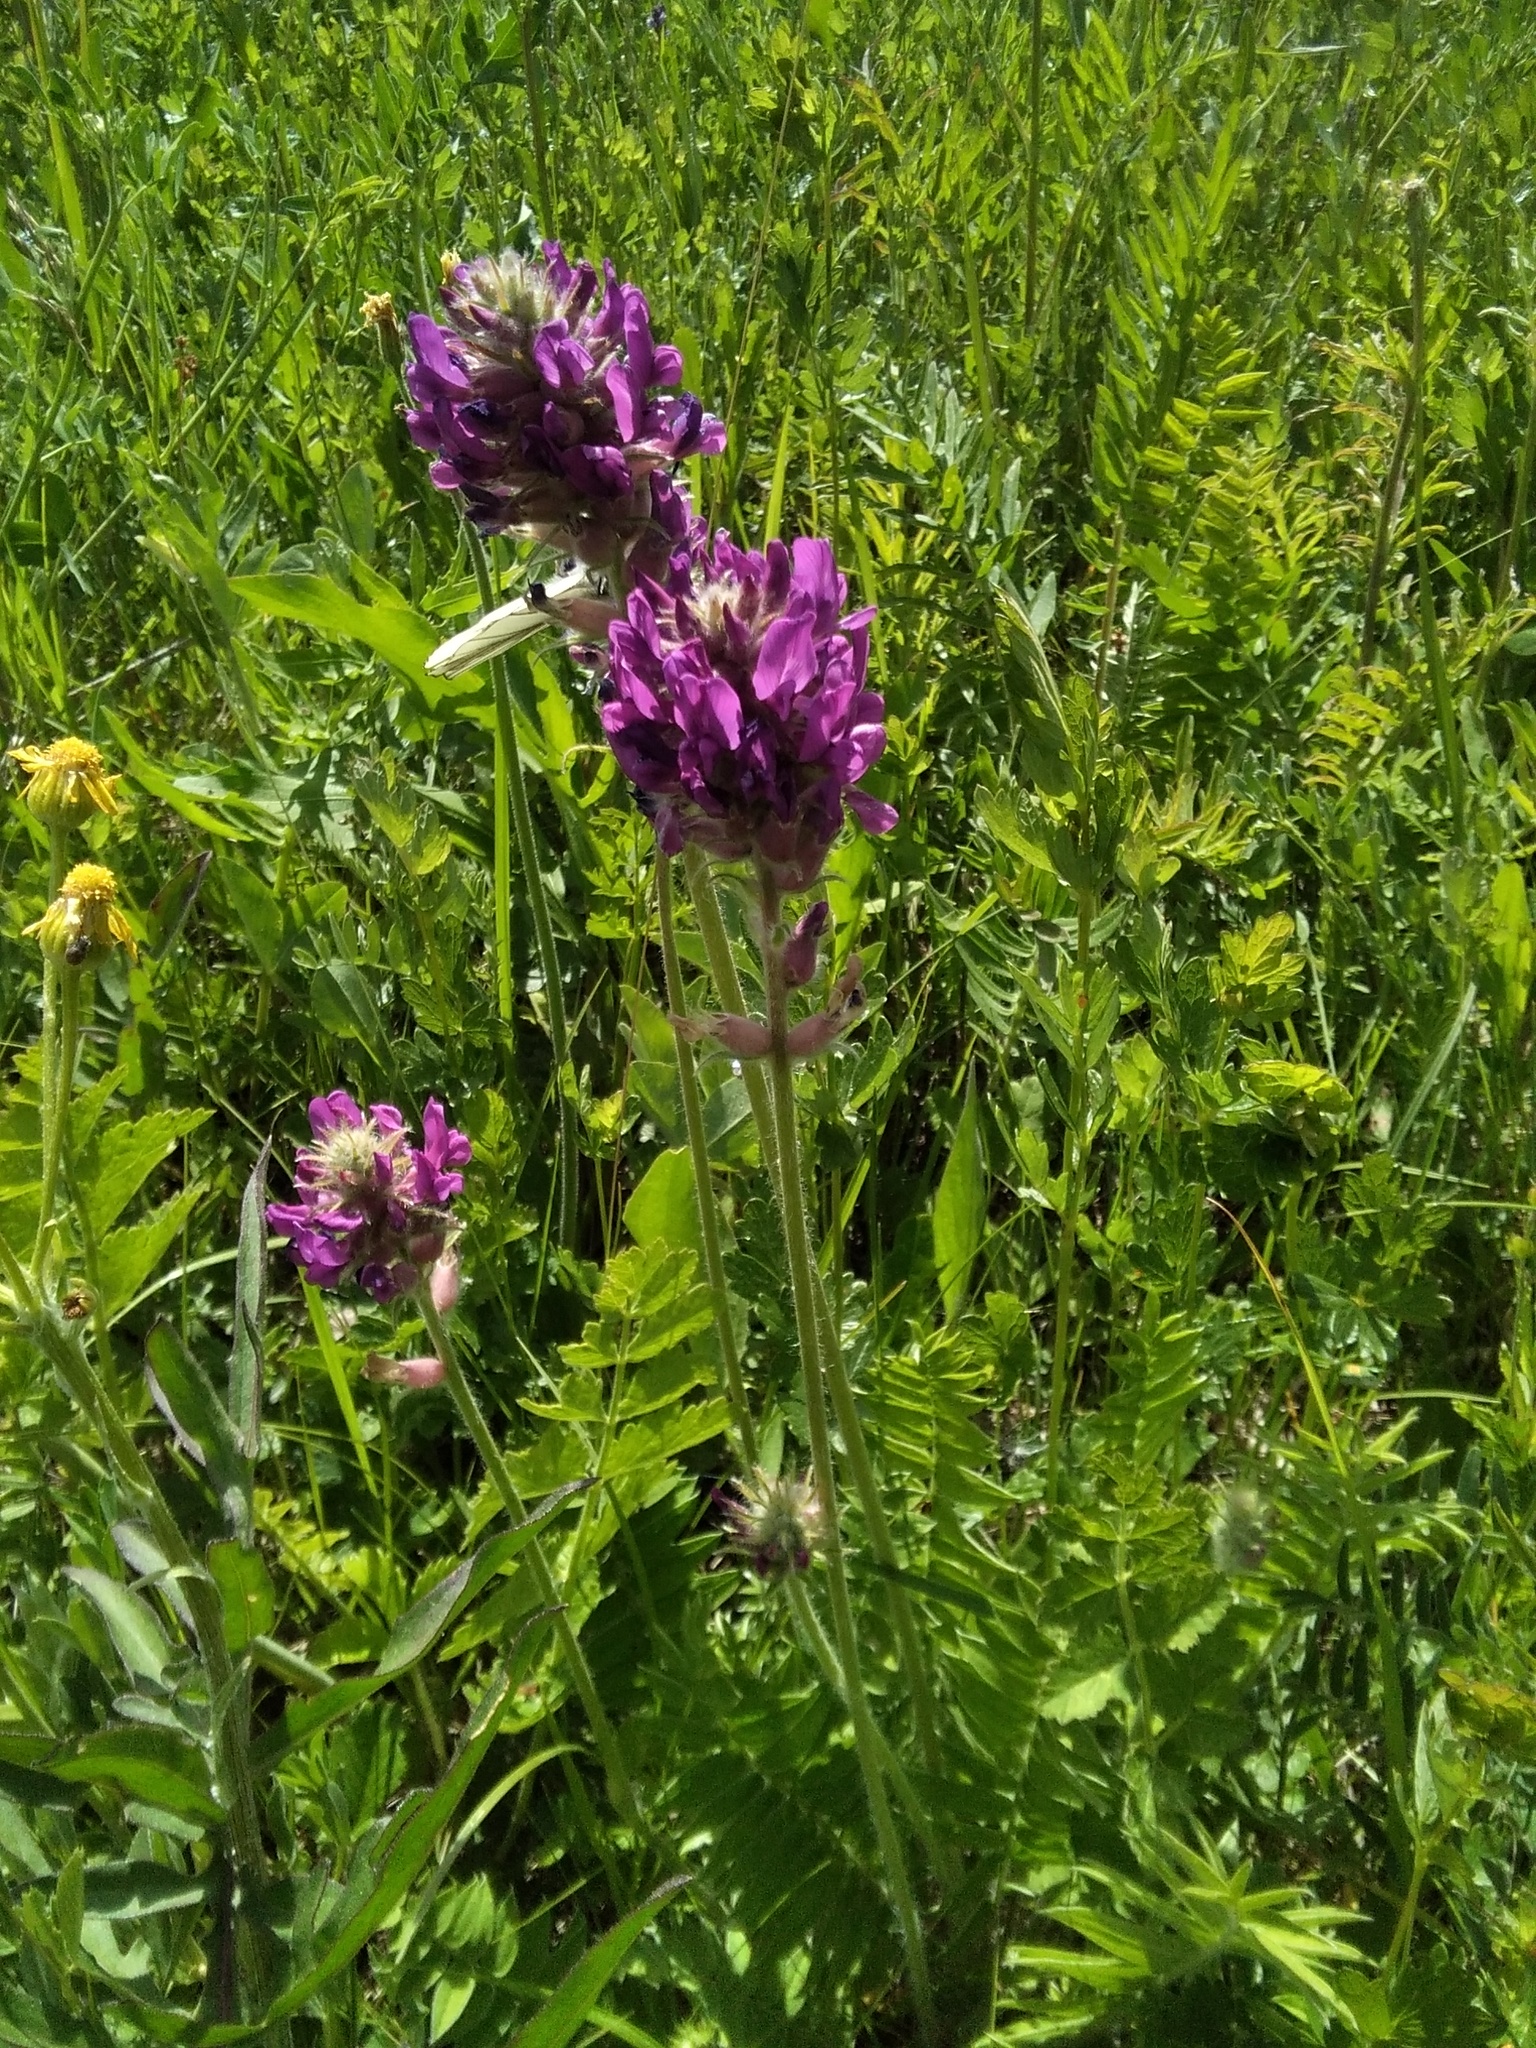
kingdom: Plantae
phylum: Tracheophyta
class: Magnoliopsida
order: Fabales
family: Fabaceae
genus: Oxytropis
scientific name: Oxytropis campanulata
